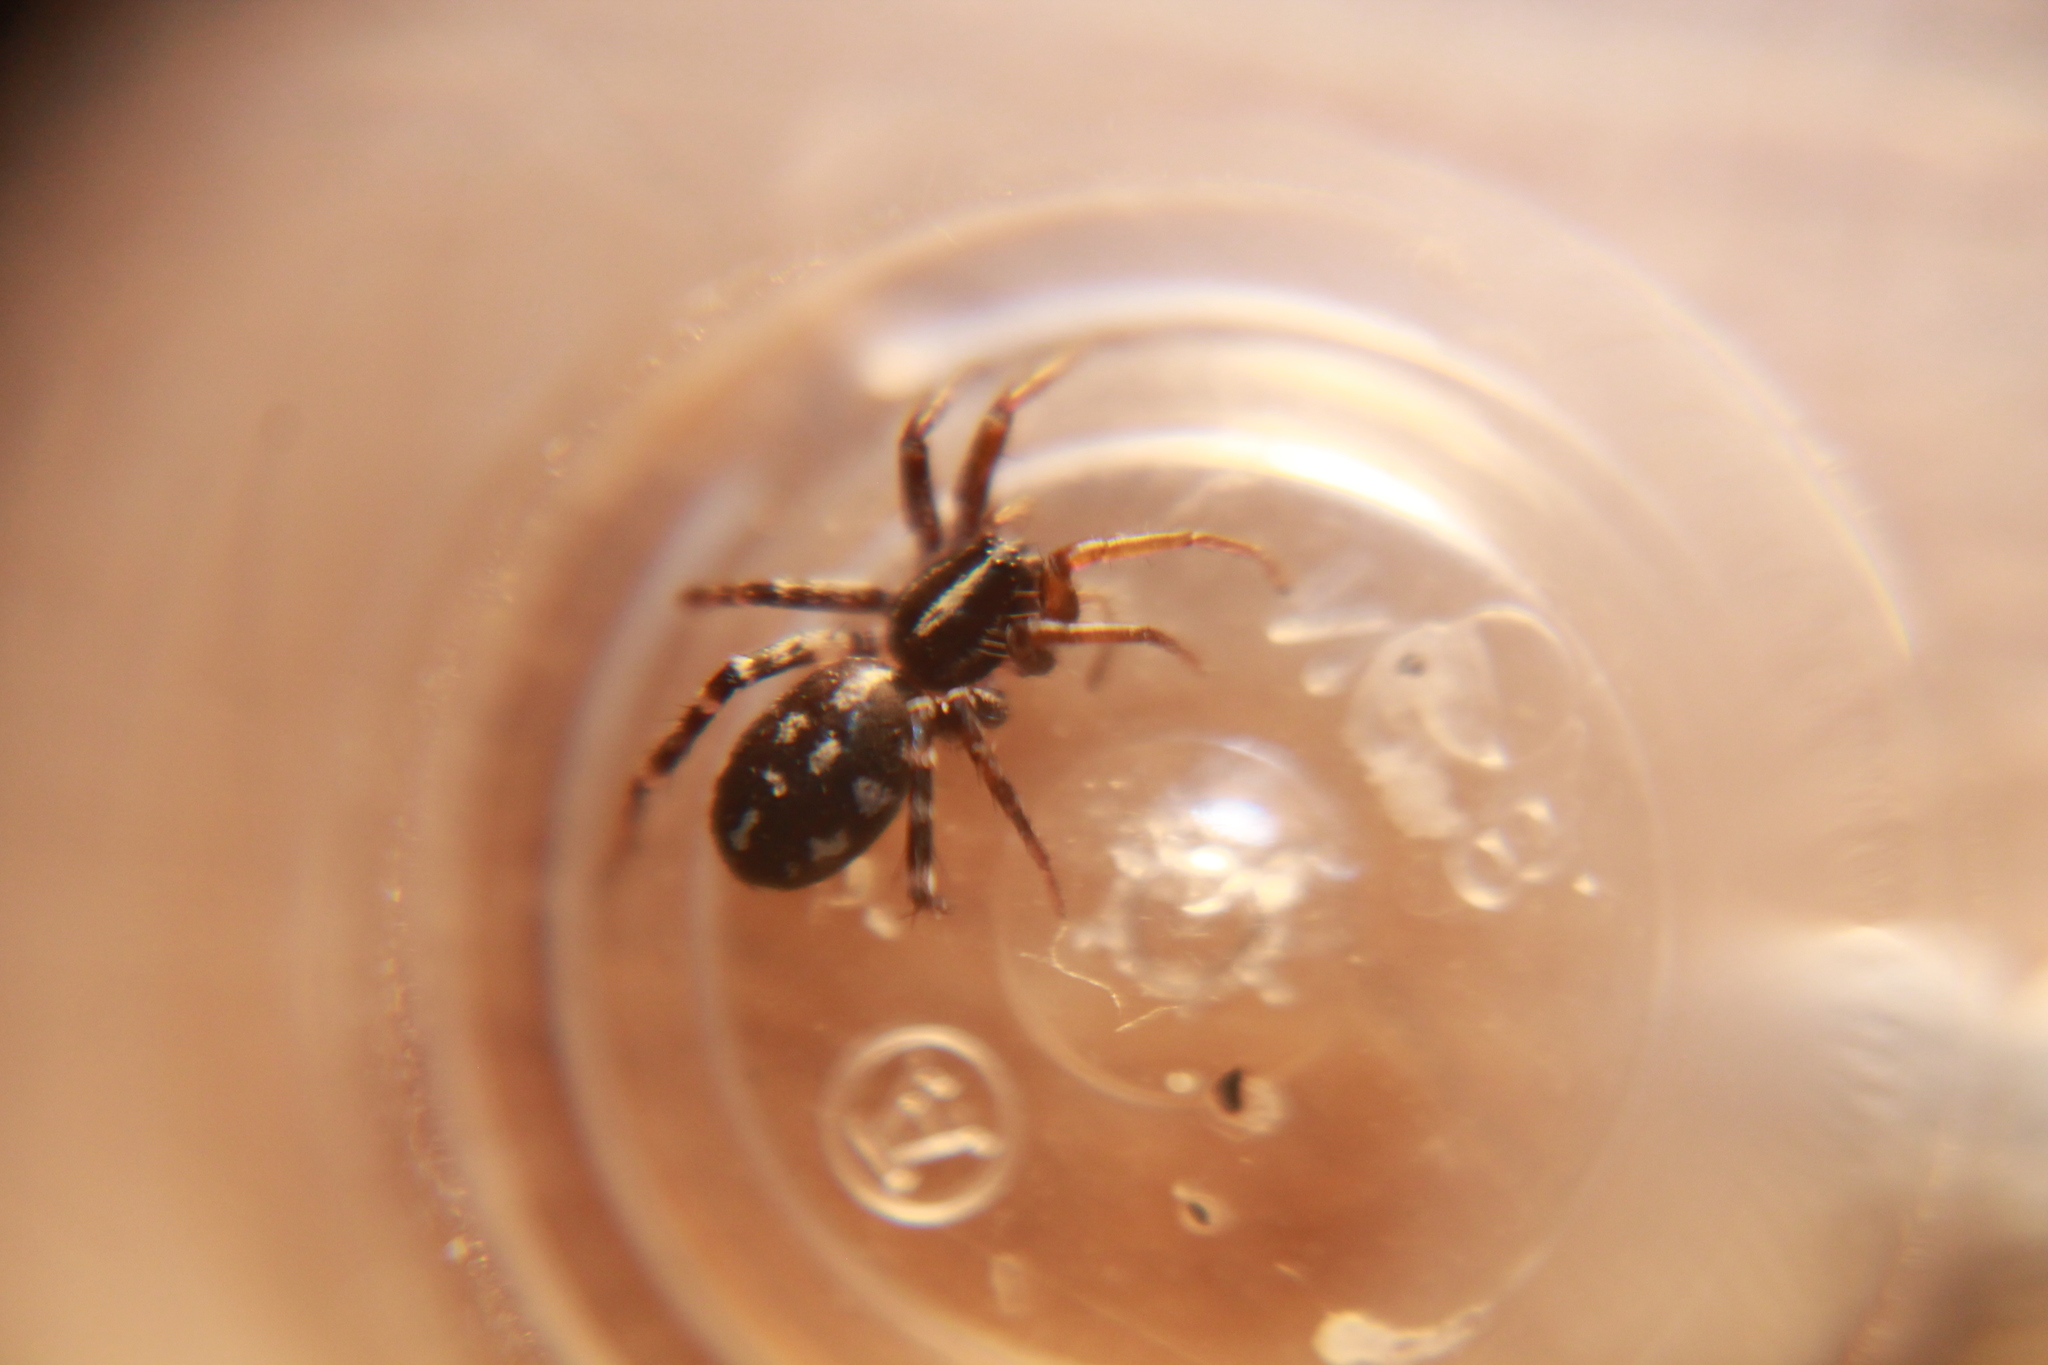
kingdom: Animalia
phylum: Arthropoda
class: Arachnida
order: Araneae
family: Corinnidae
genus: Nyssus
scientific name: Nyssus coloripes
